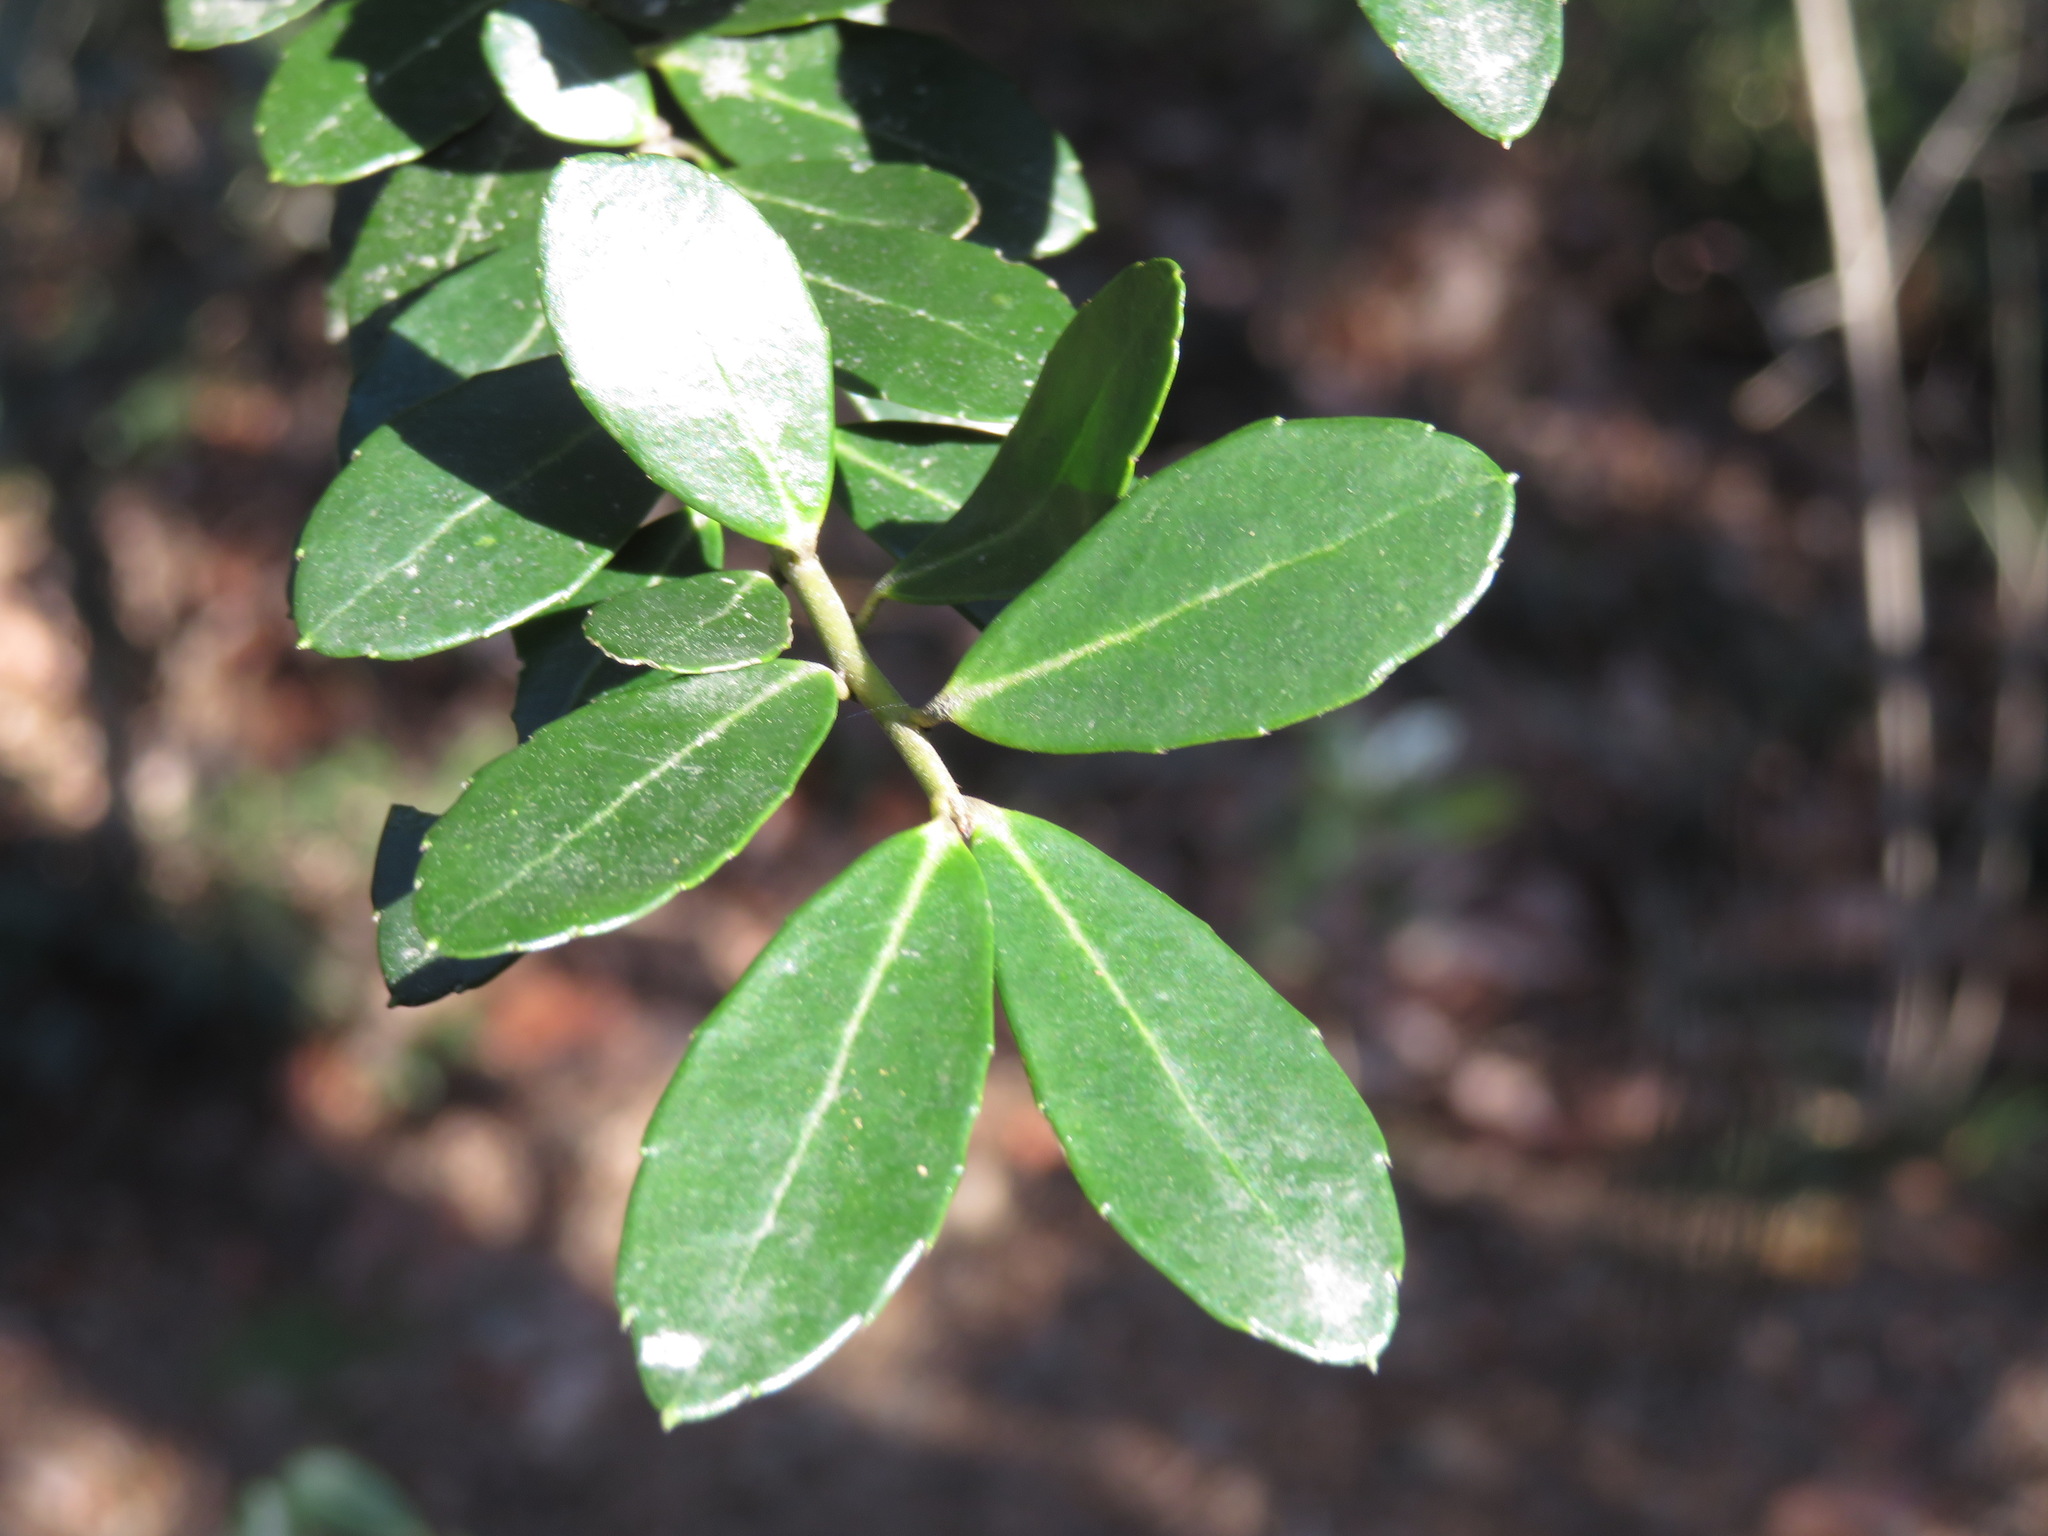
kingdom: Plantae
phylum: Tracheophyta
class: Magnoliopsida
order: Aquifoliales
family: Aquifoliaceae
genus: Ilex
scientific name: Ilex crenata
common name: Japanese holly
